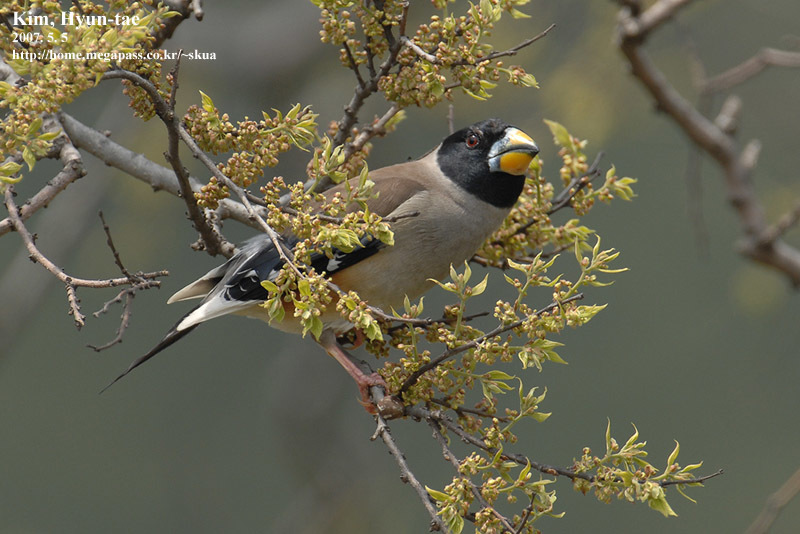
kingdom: Animalia
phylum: Chordata
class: Aves
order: Passeriformes
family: Fringillidae
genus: Eophona
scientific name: Eophona migratoria
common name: Yellow-billed grosbeak
